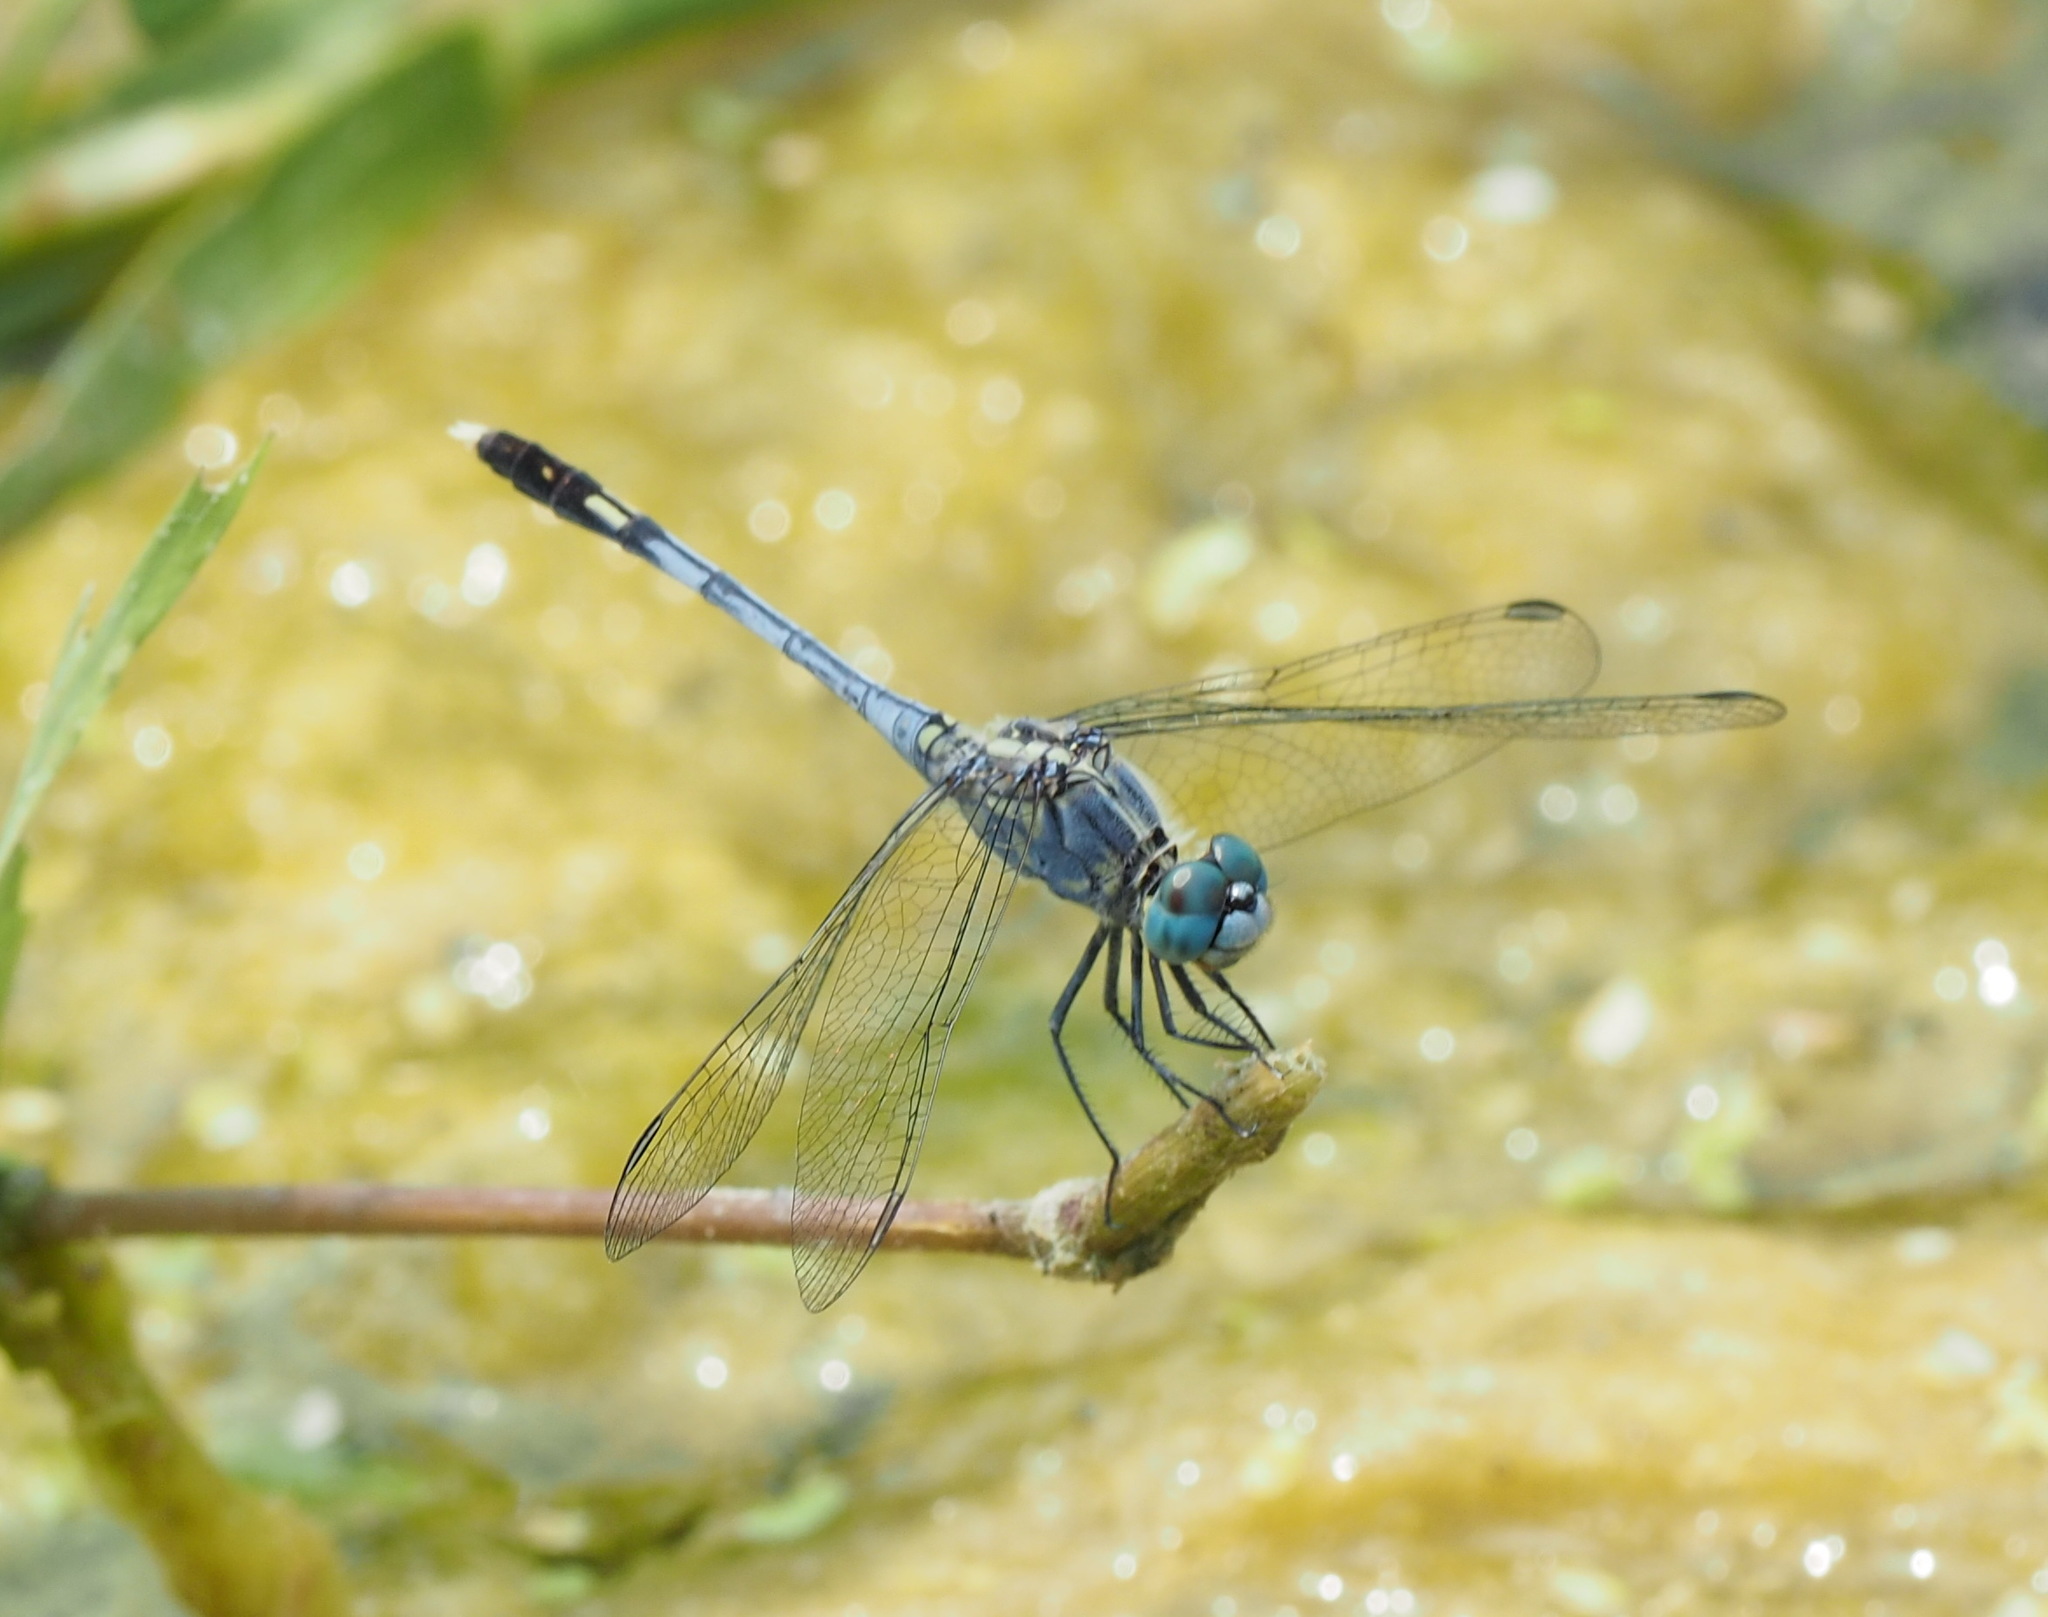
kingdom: Animalia
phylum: Arthropoda
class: Insecta
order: Odonata
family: Libellulidae
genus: Diplacodes
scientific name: Diplacodes trivialis
